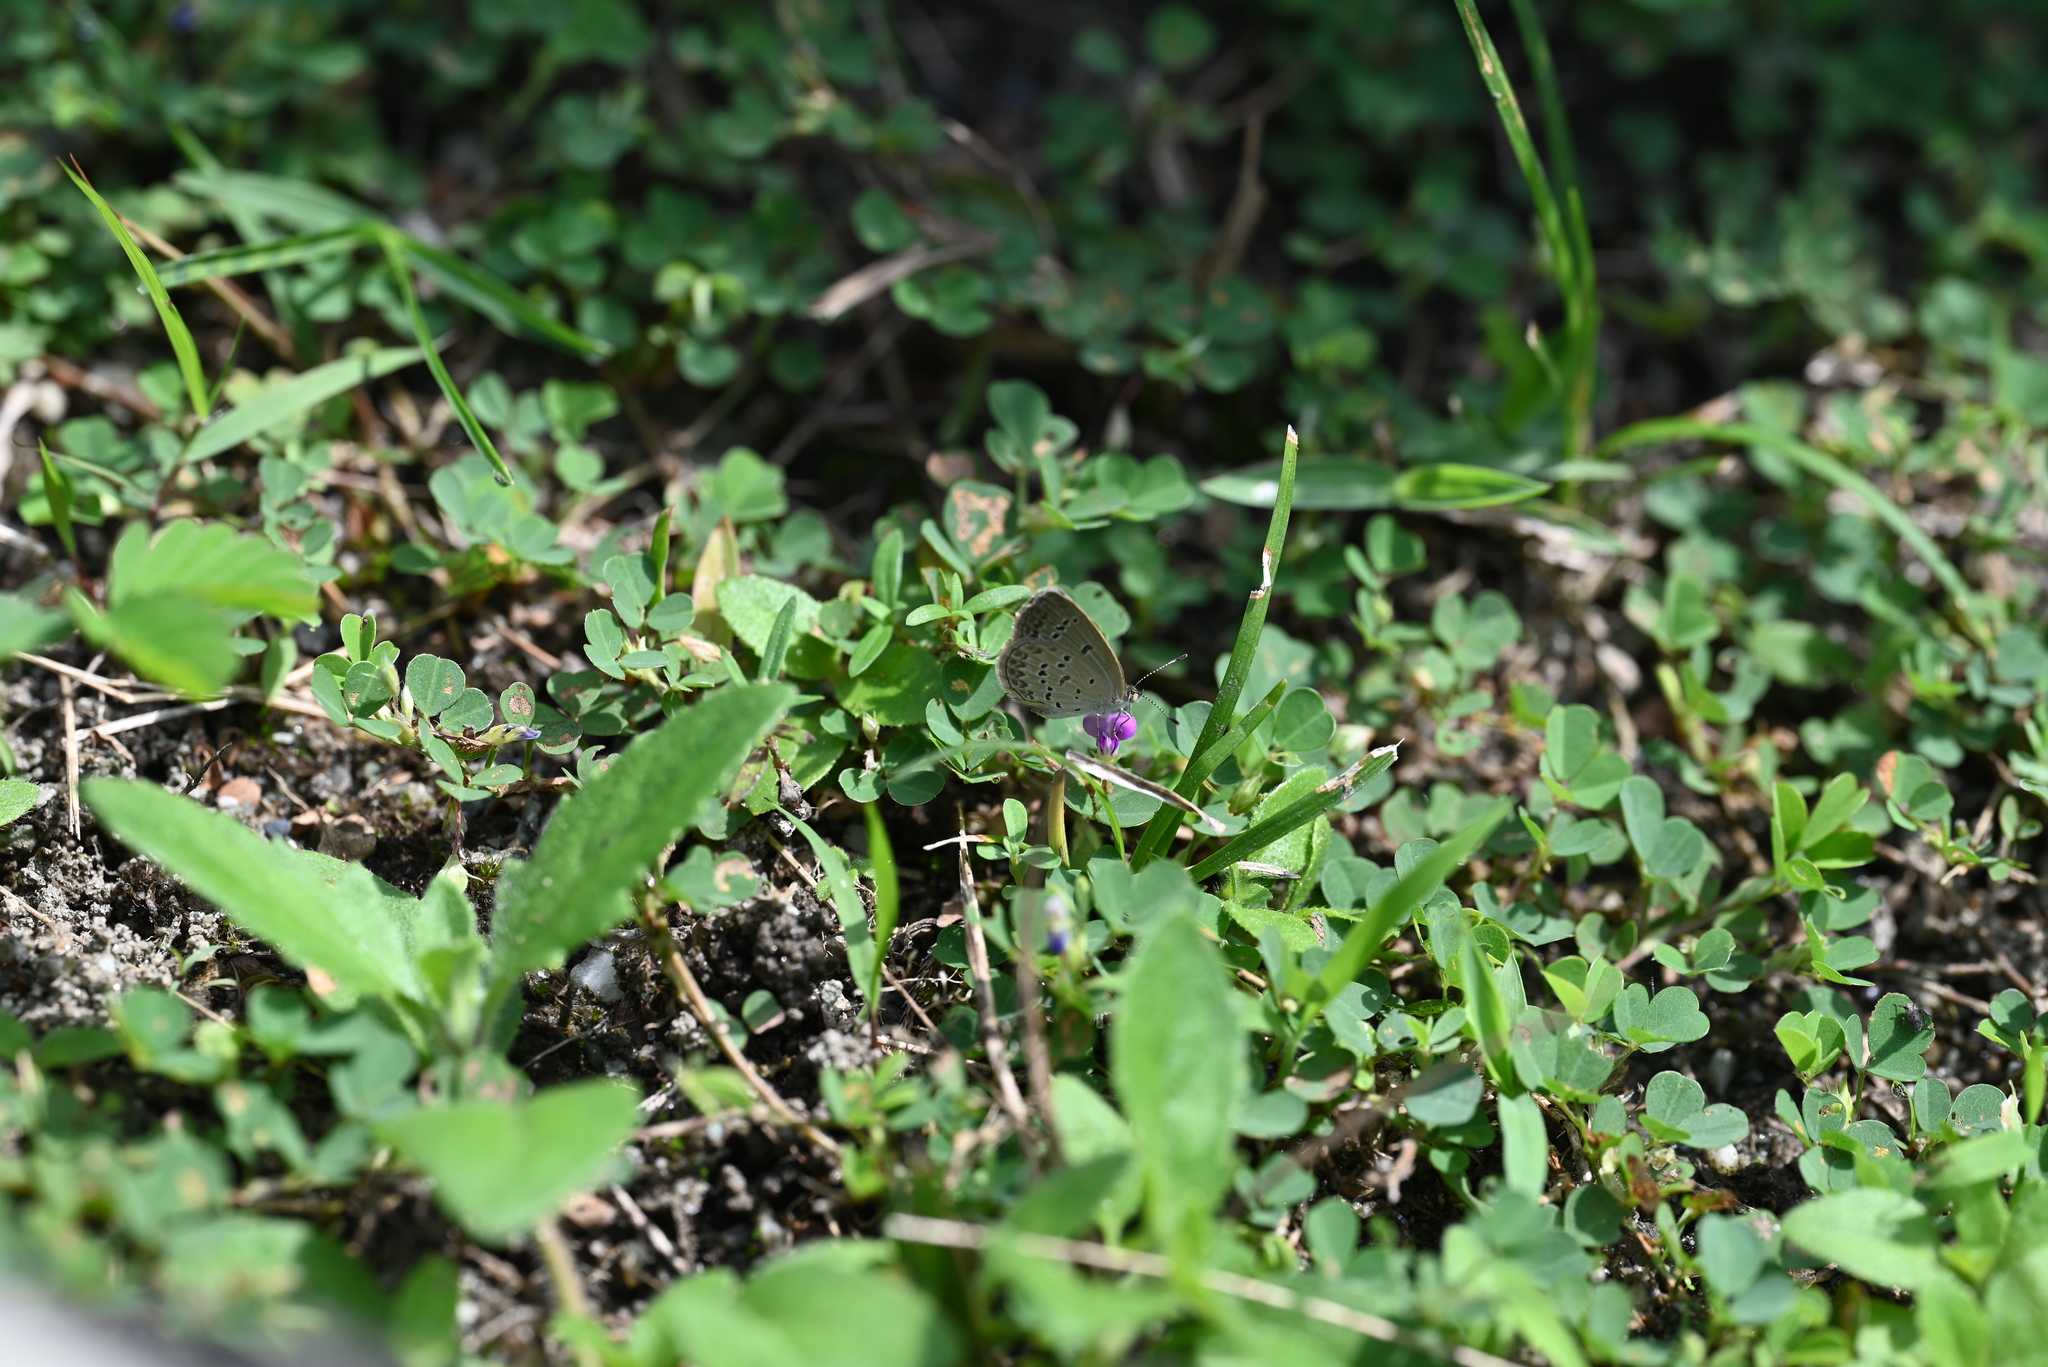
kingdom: Animalia
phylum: Arthropoda
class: Insecta
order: Lepidoptera
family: Lycaenidae
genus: Zizina
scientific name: Zizina otis
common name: Lesser grass blue
